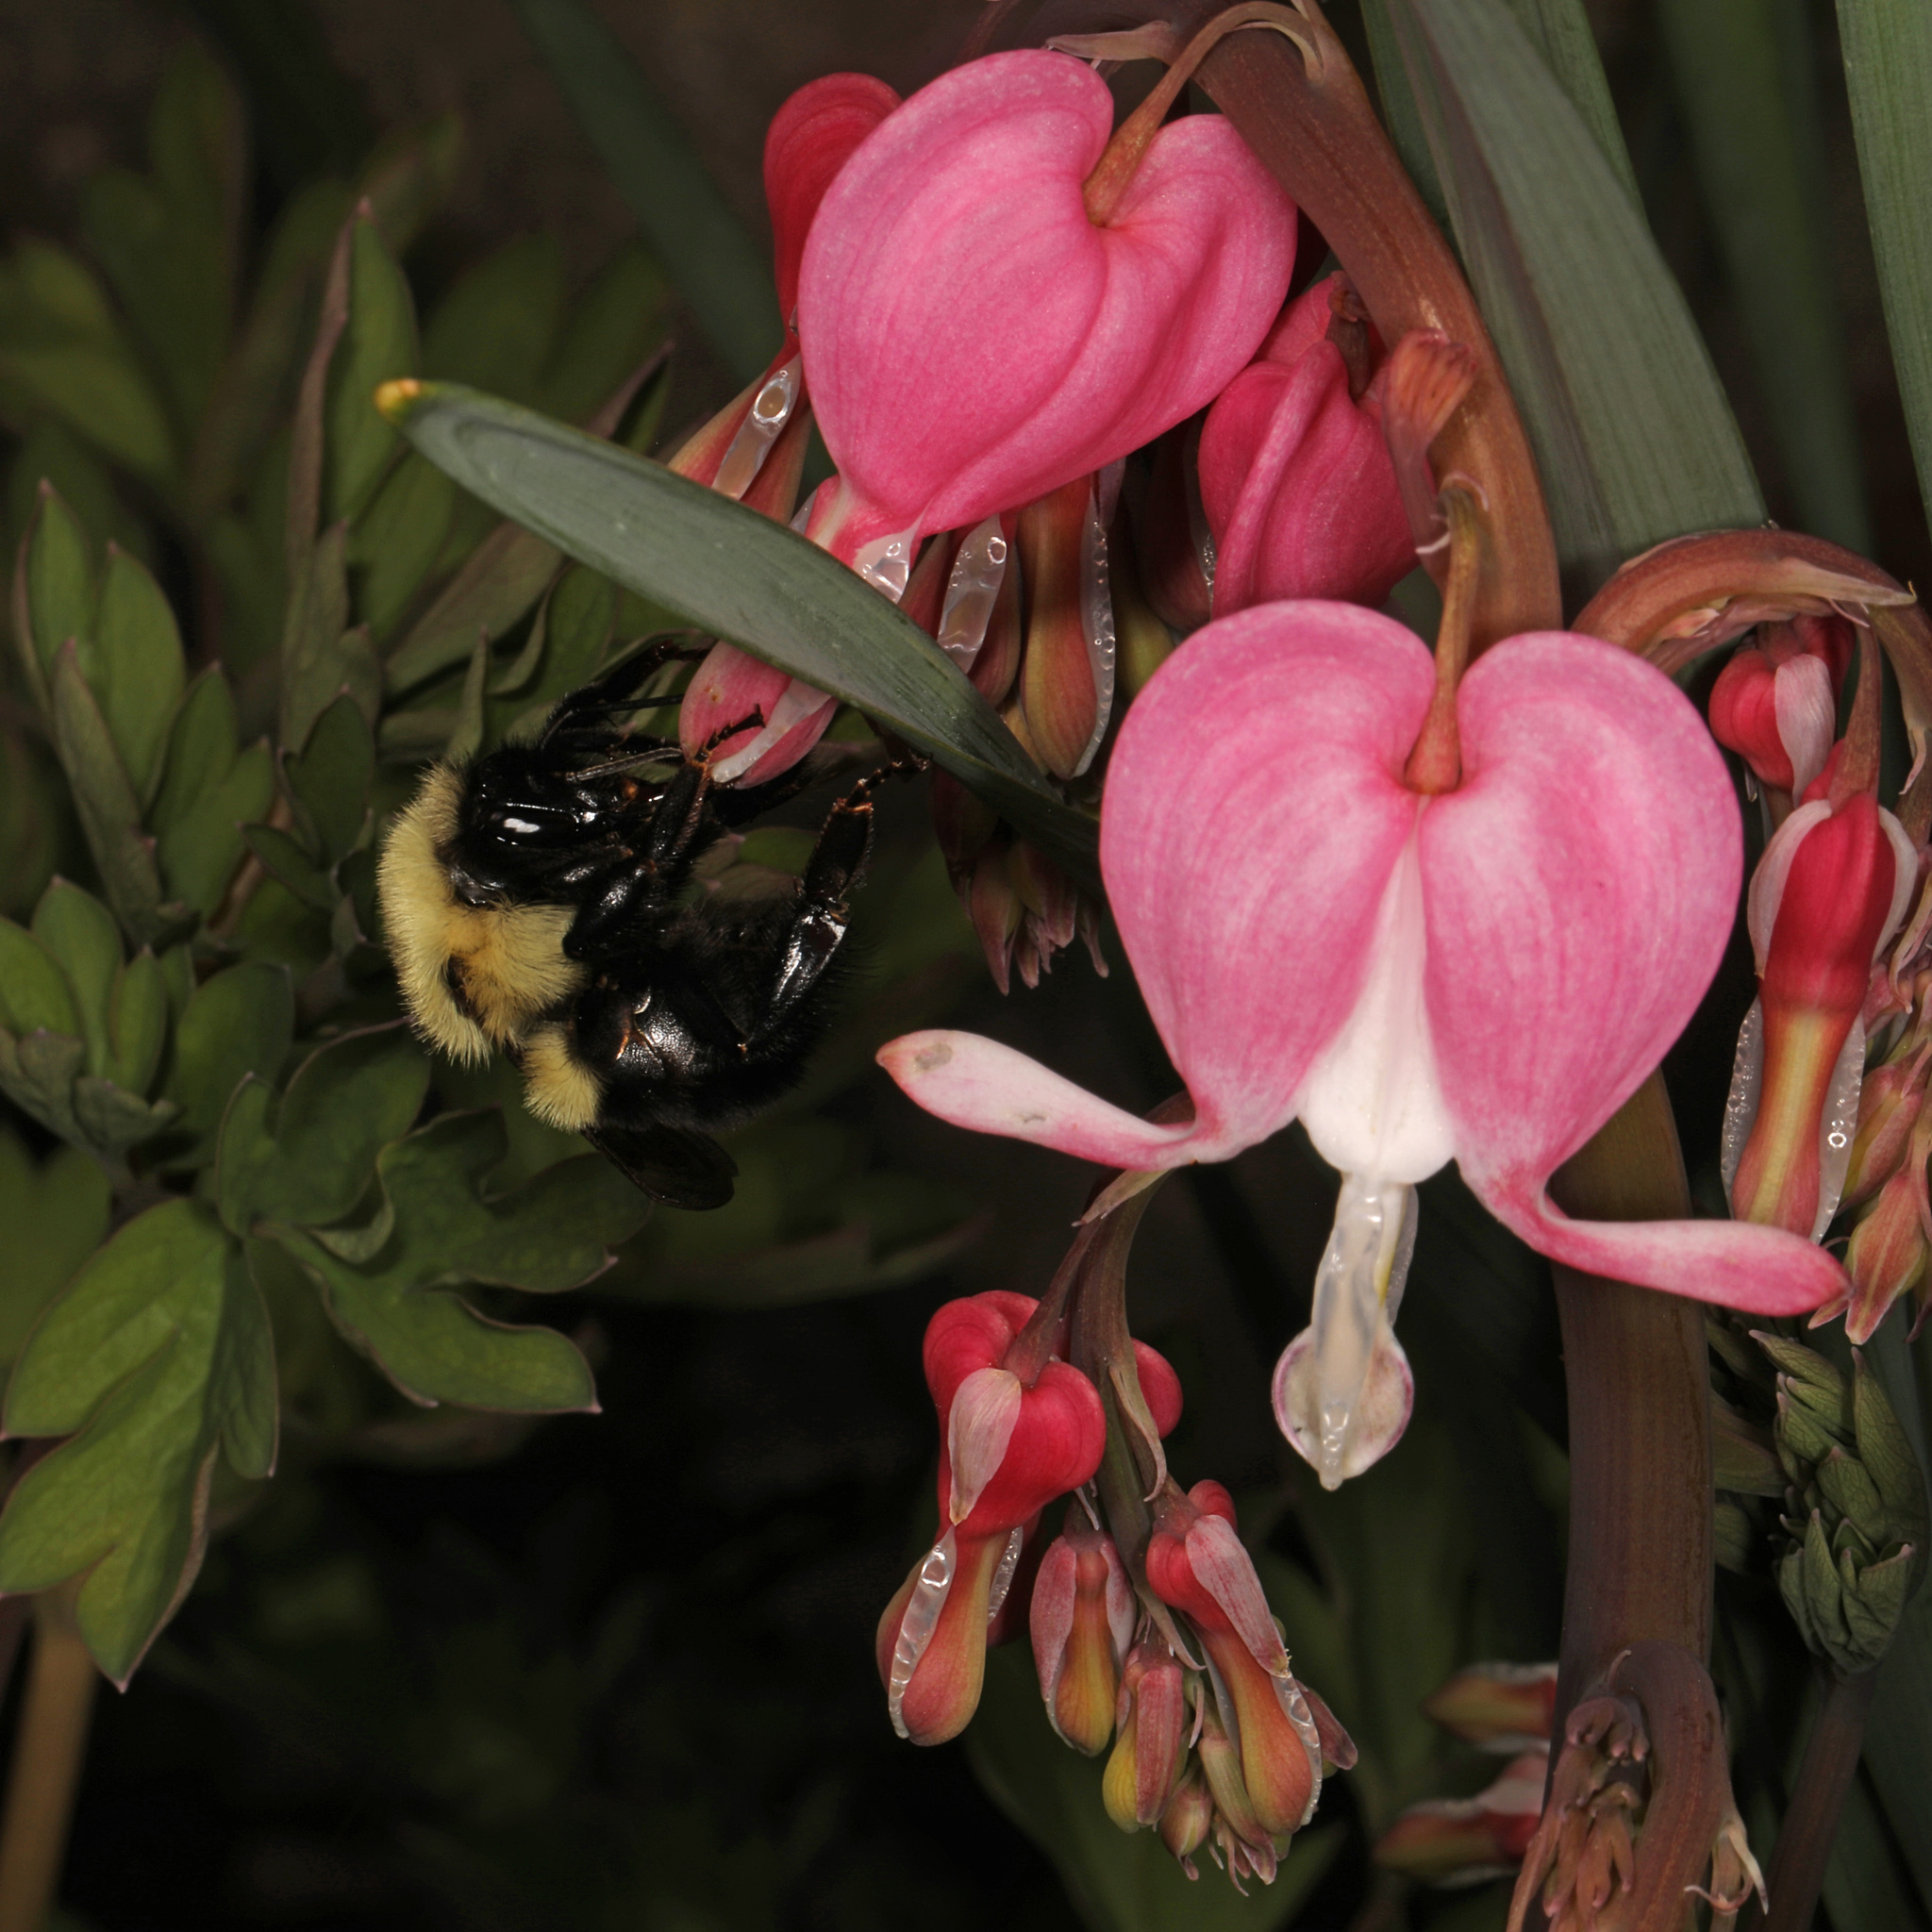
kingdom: Animalia
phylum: Arthropoda
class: Insecta
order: Hymenoptera
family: Apidae
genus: Bombus
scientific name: Bombus bimaculatus
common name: Two-spotted bumble bee
